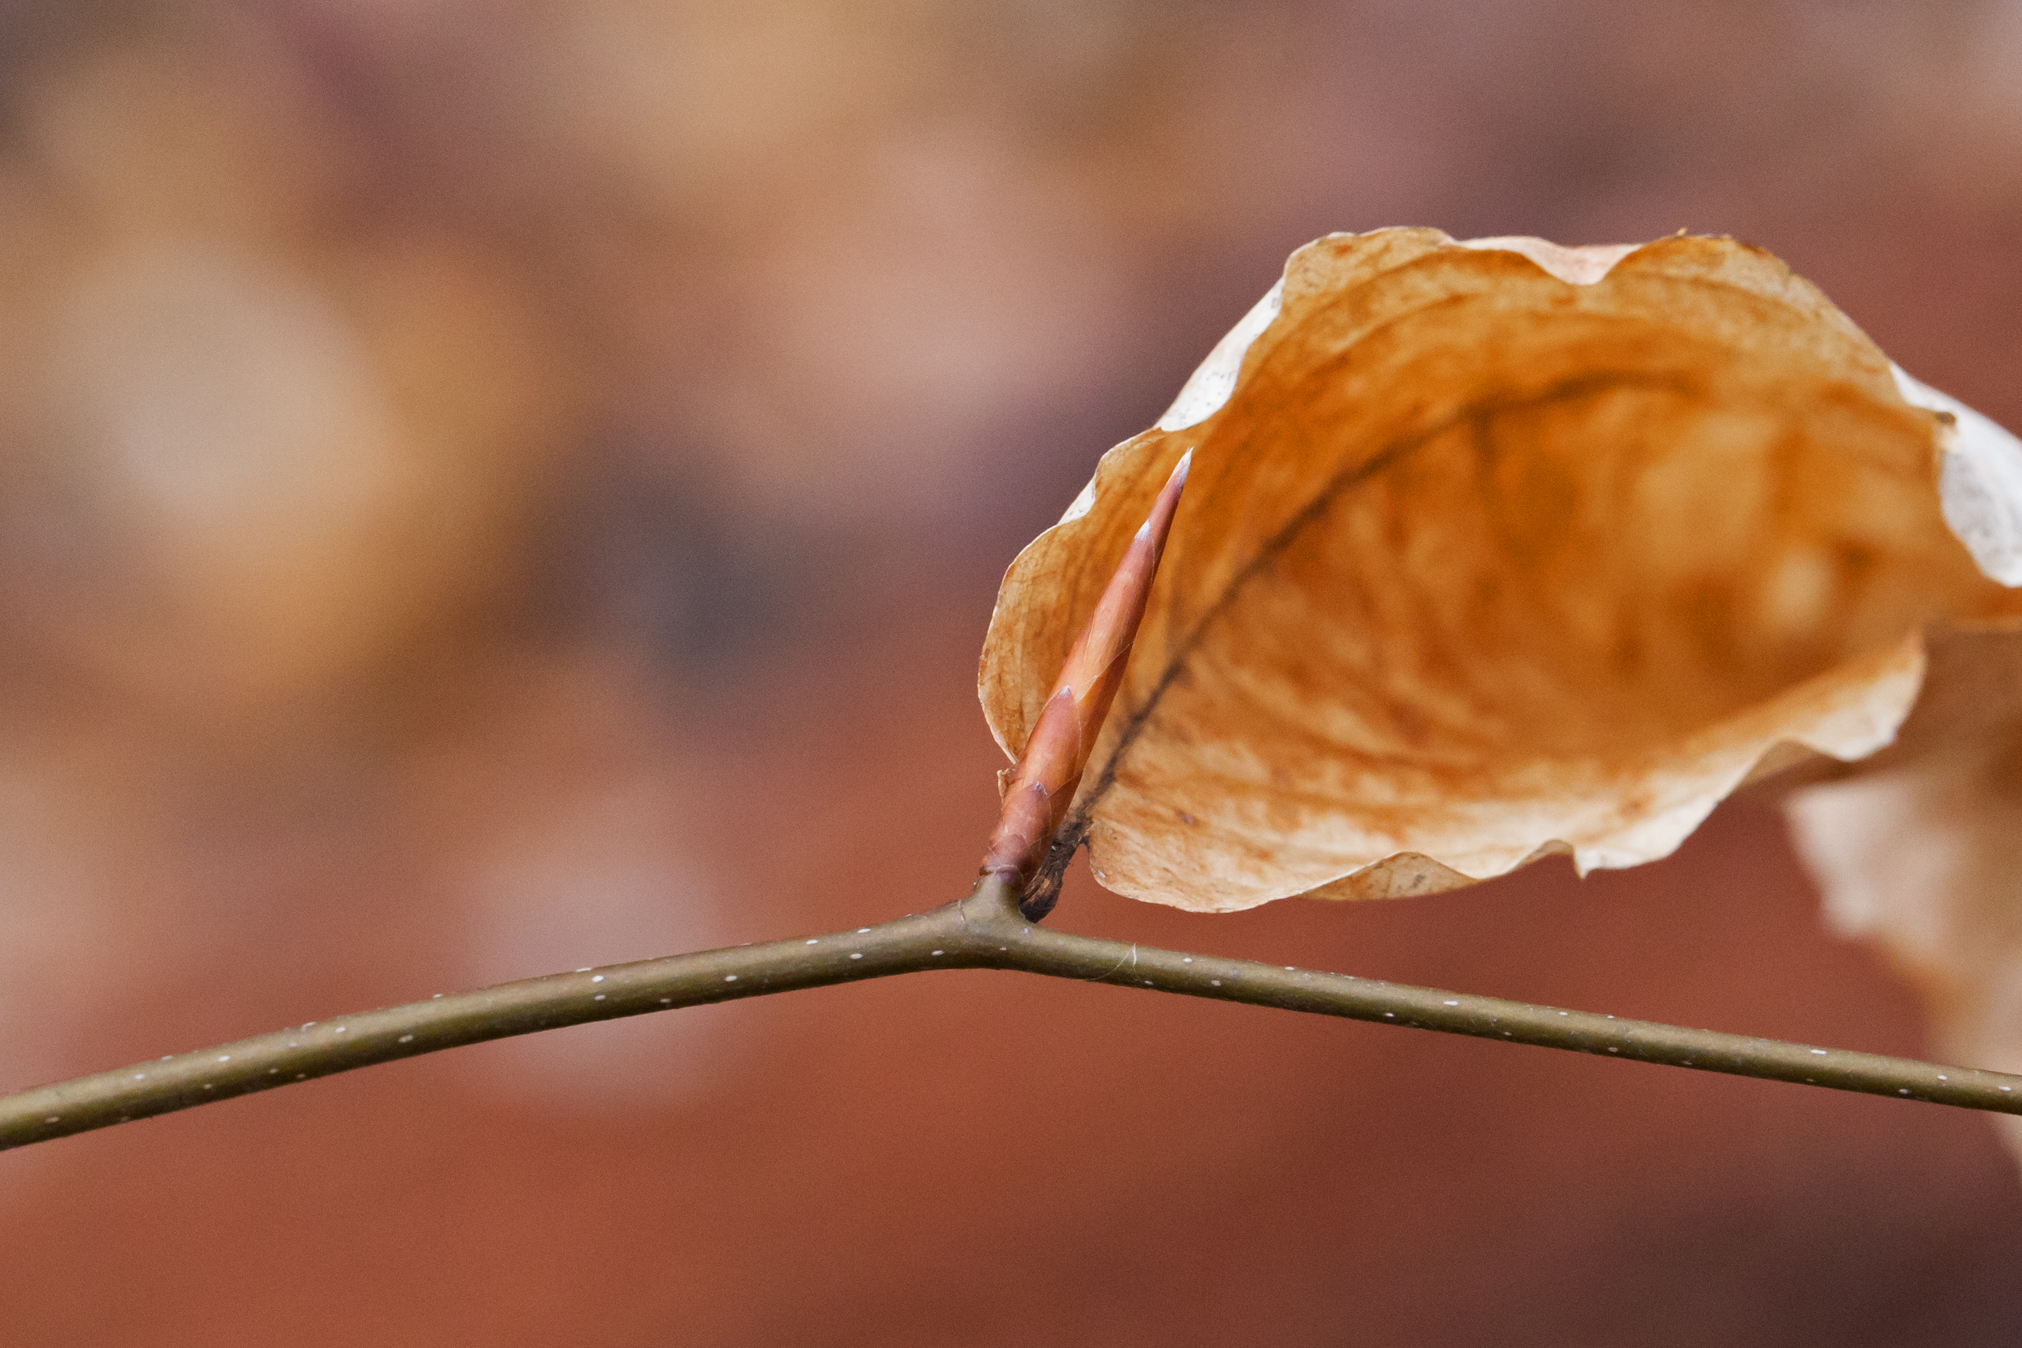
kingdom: Plantae
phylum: Tracheophyta
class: Magnoliopsida
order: Fagales
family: Fagaceae
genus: Fagus
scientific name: Fagus grandifolia
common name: American beech
